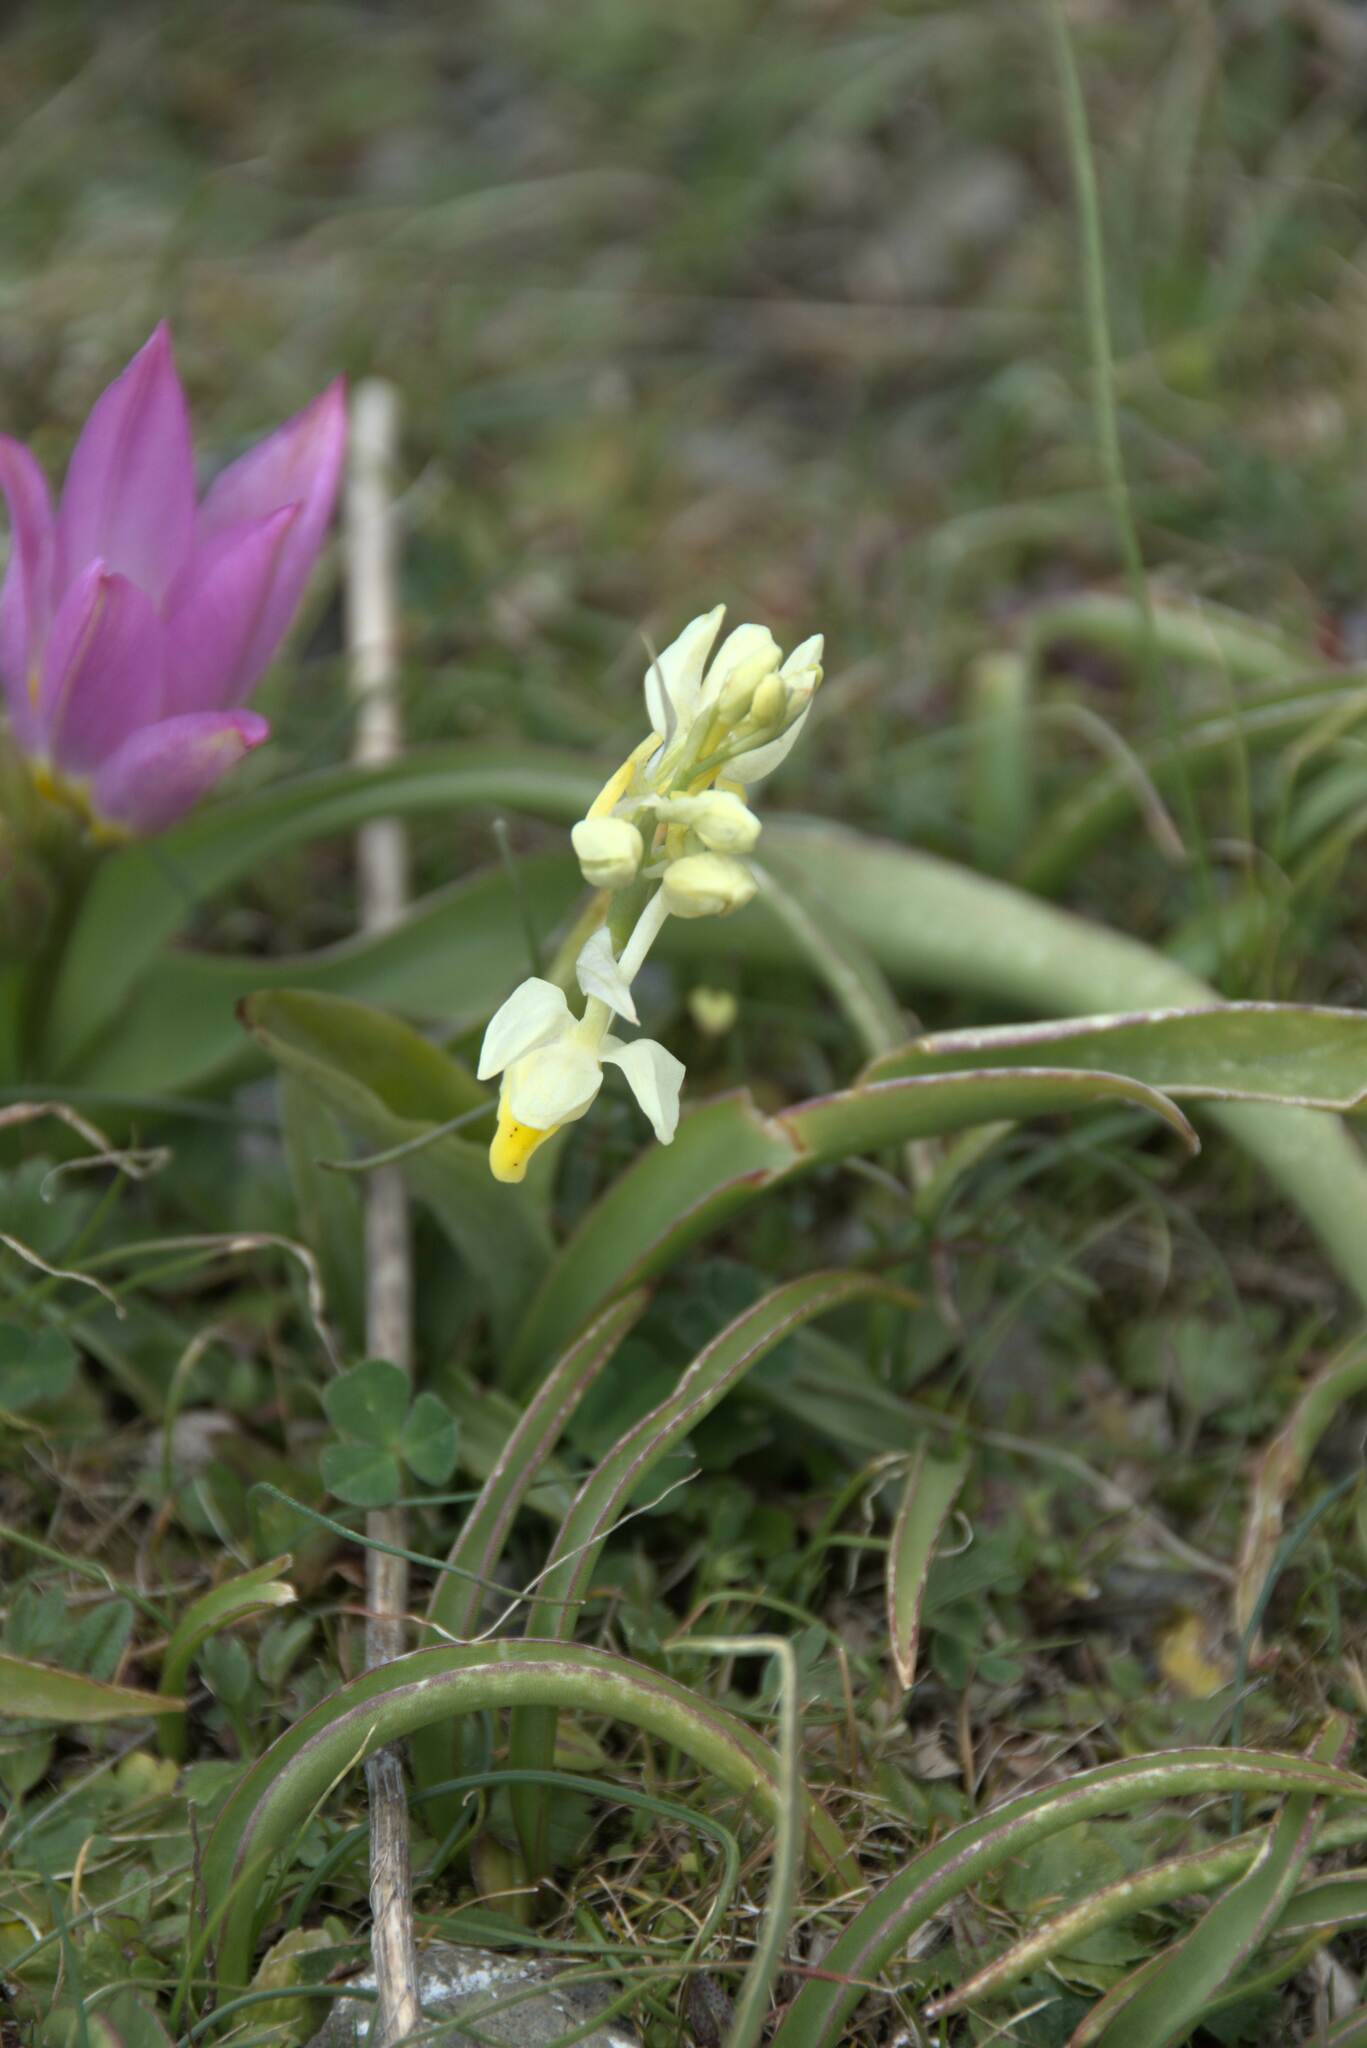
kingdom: Plantae
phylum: Tracheophyta
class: Liliopsida
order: Asparagales
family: Orchidaceae
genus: Orchis
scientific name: Orchis pauciflora
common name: Few-flowered orchid
